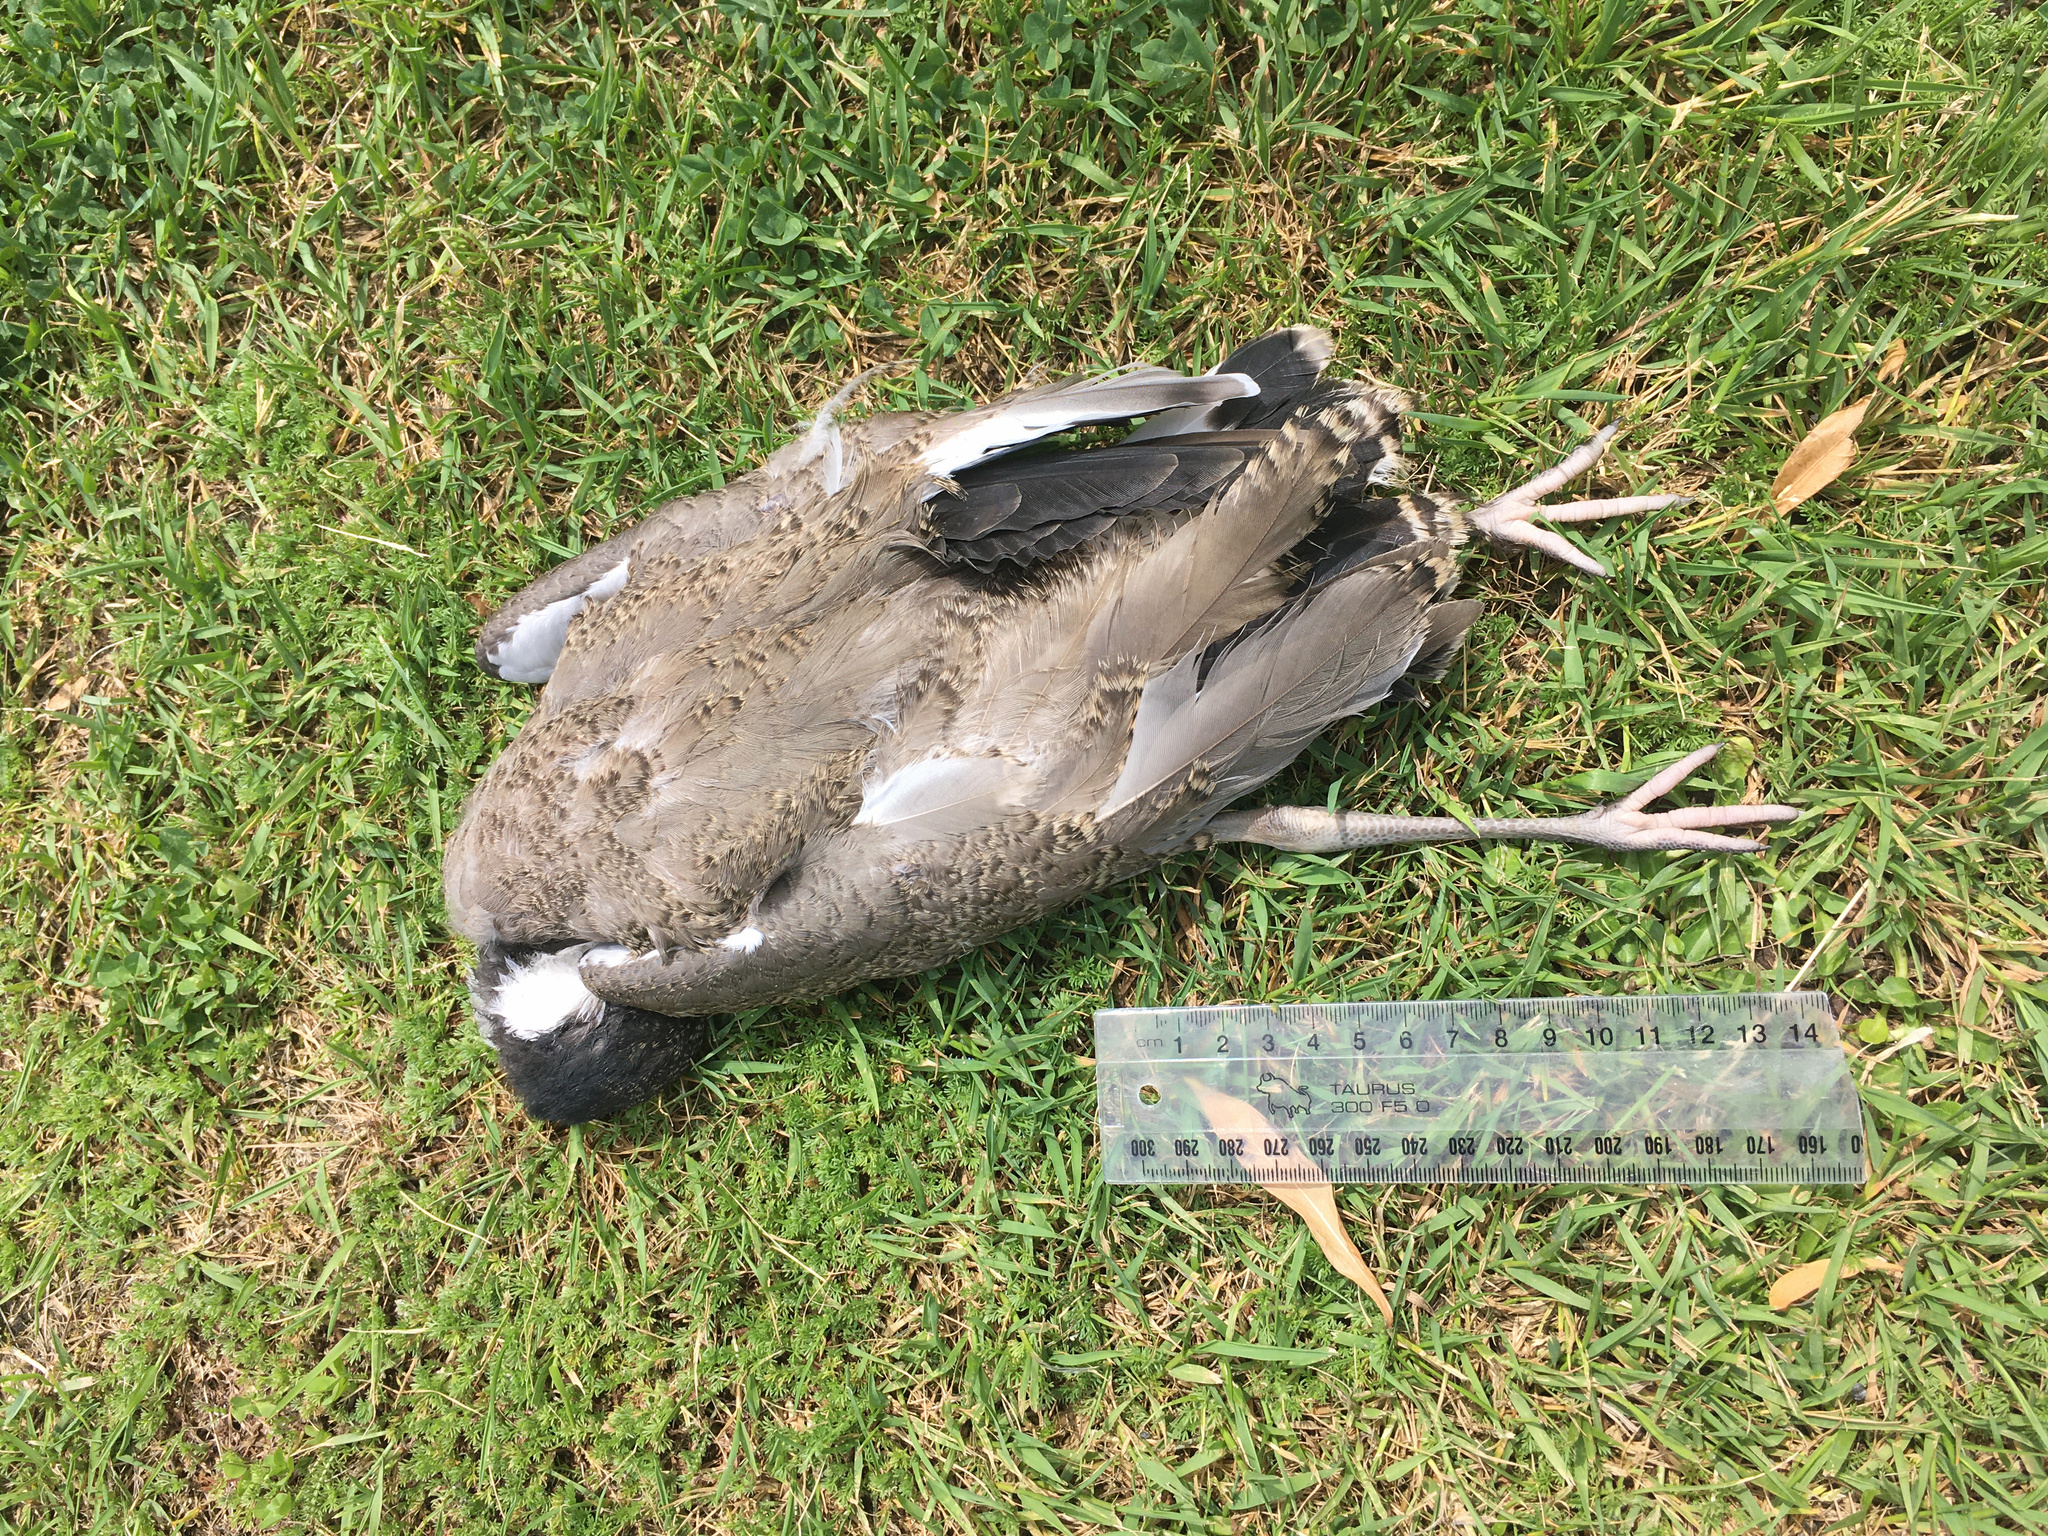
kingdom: Animalia
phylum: Chordata
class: Aves
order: Charadriiformes
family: Charadriidae
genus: Vanellus
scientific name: Vanellus miles
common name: Masked lapwing
